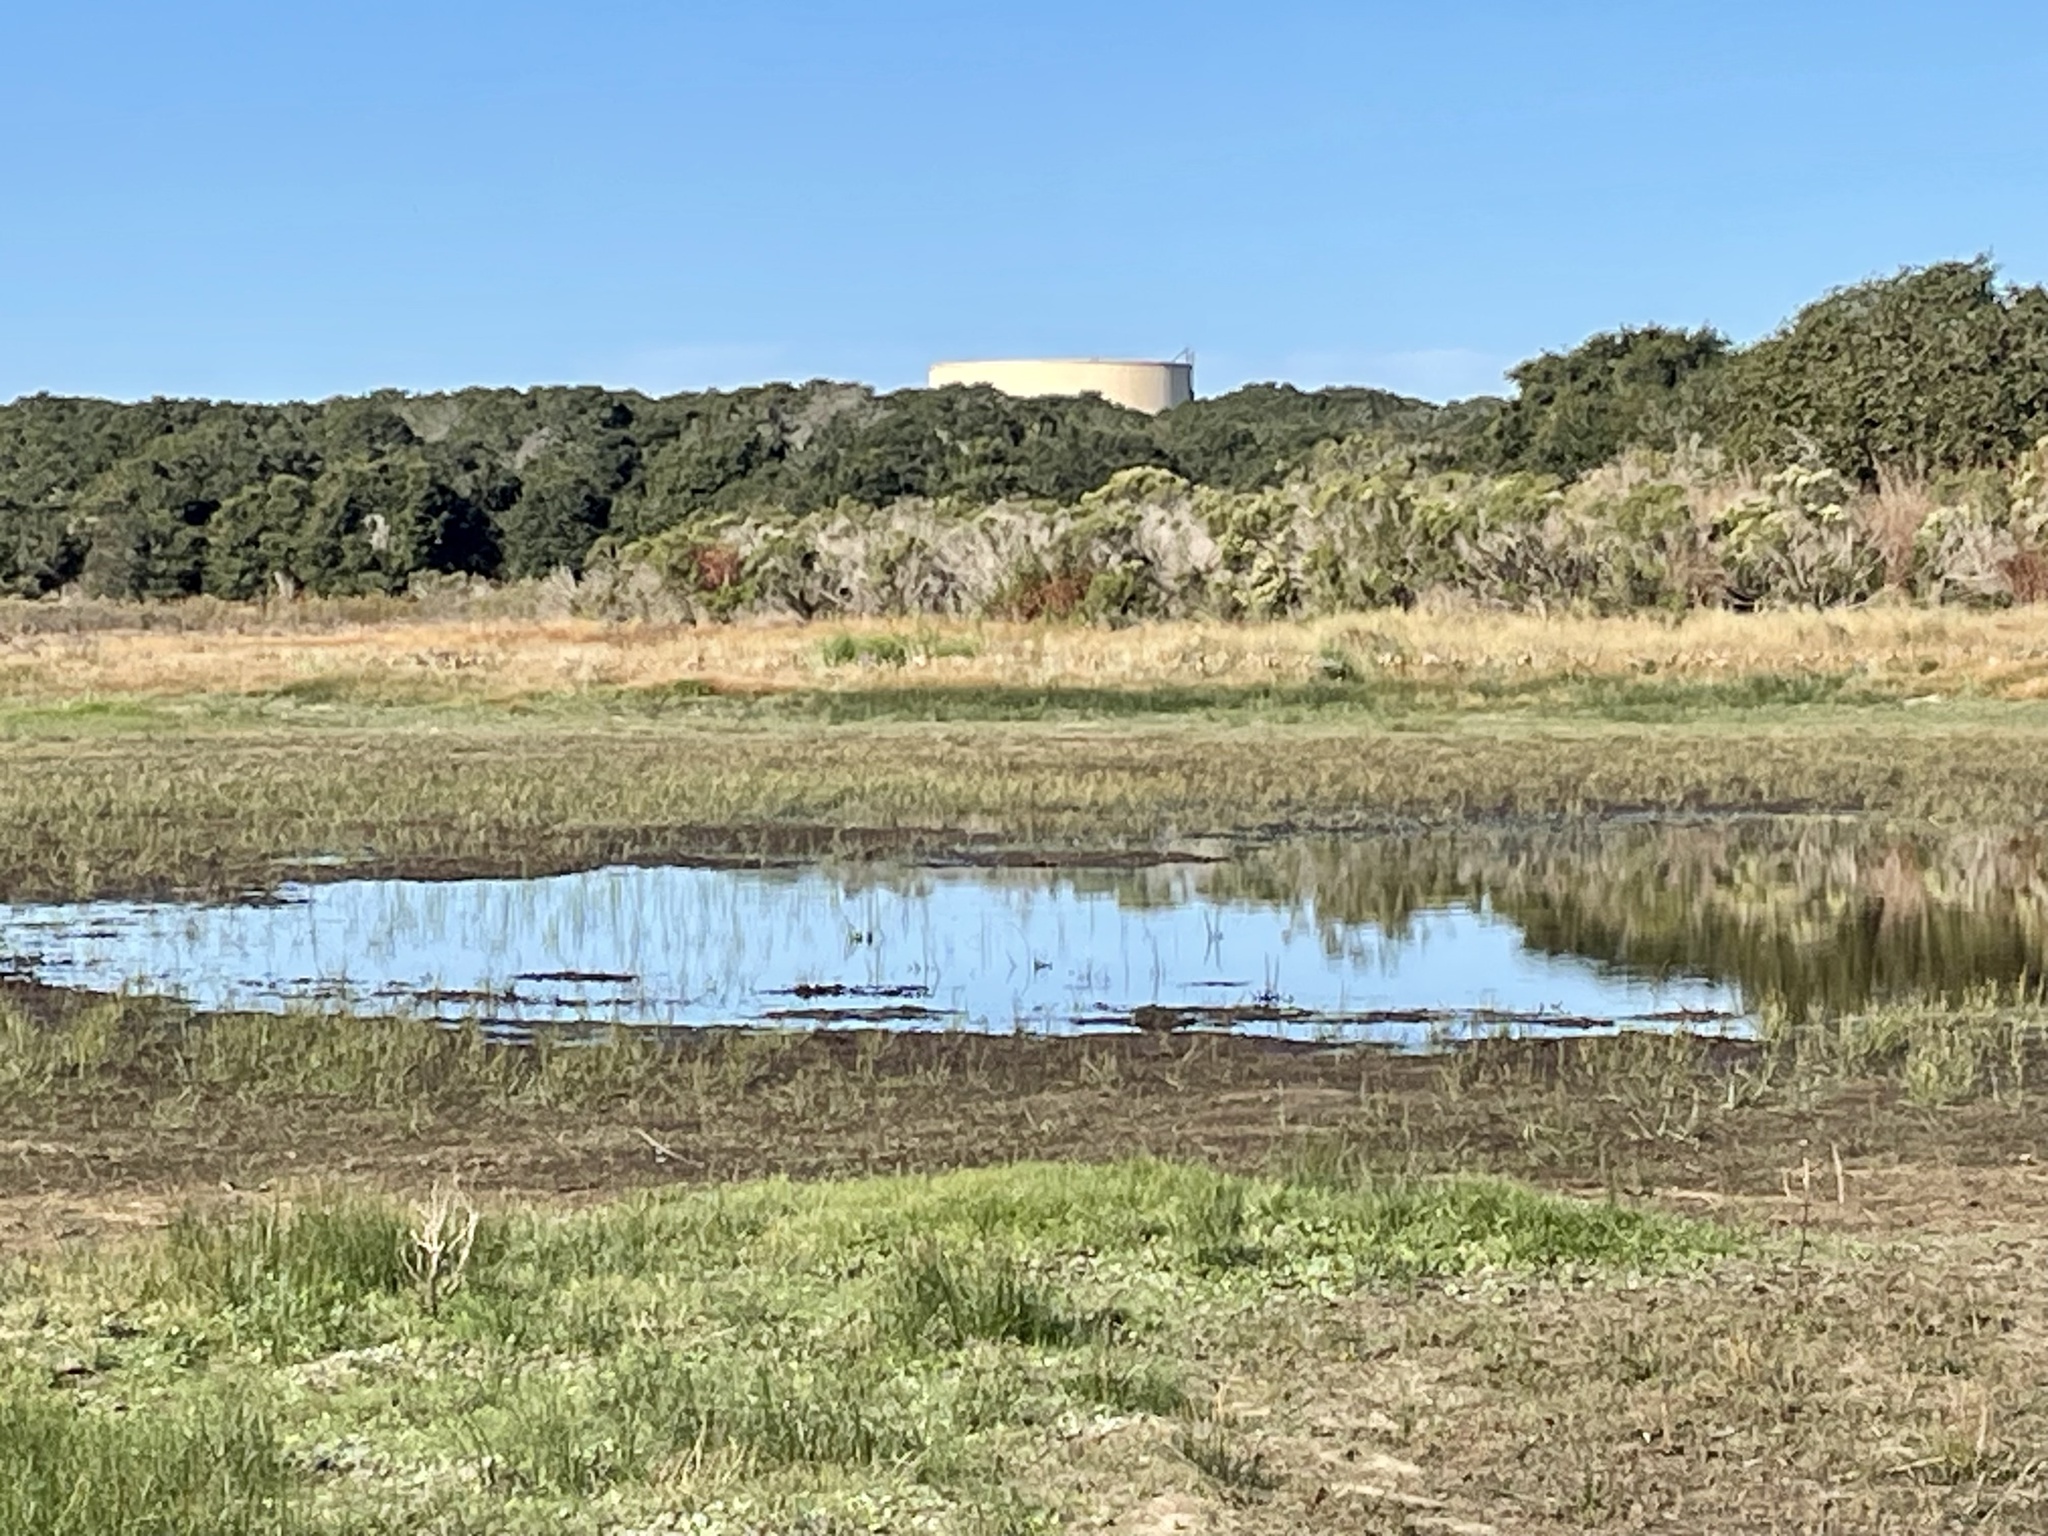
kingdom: Animalia
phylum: Chordata
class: Aves
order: Charadriiformes
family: Charadriidae
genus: Charadrius
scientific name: Charadrius vociferus
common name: Killdeer
